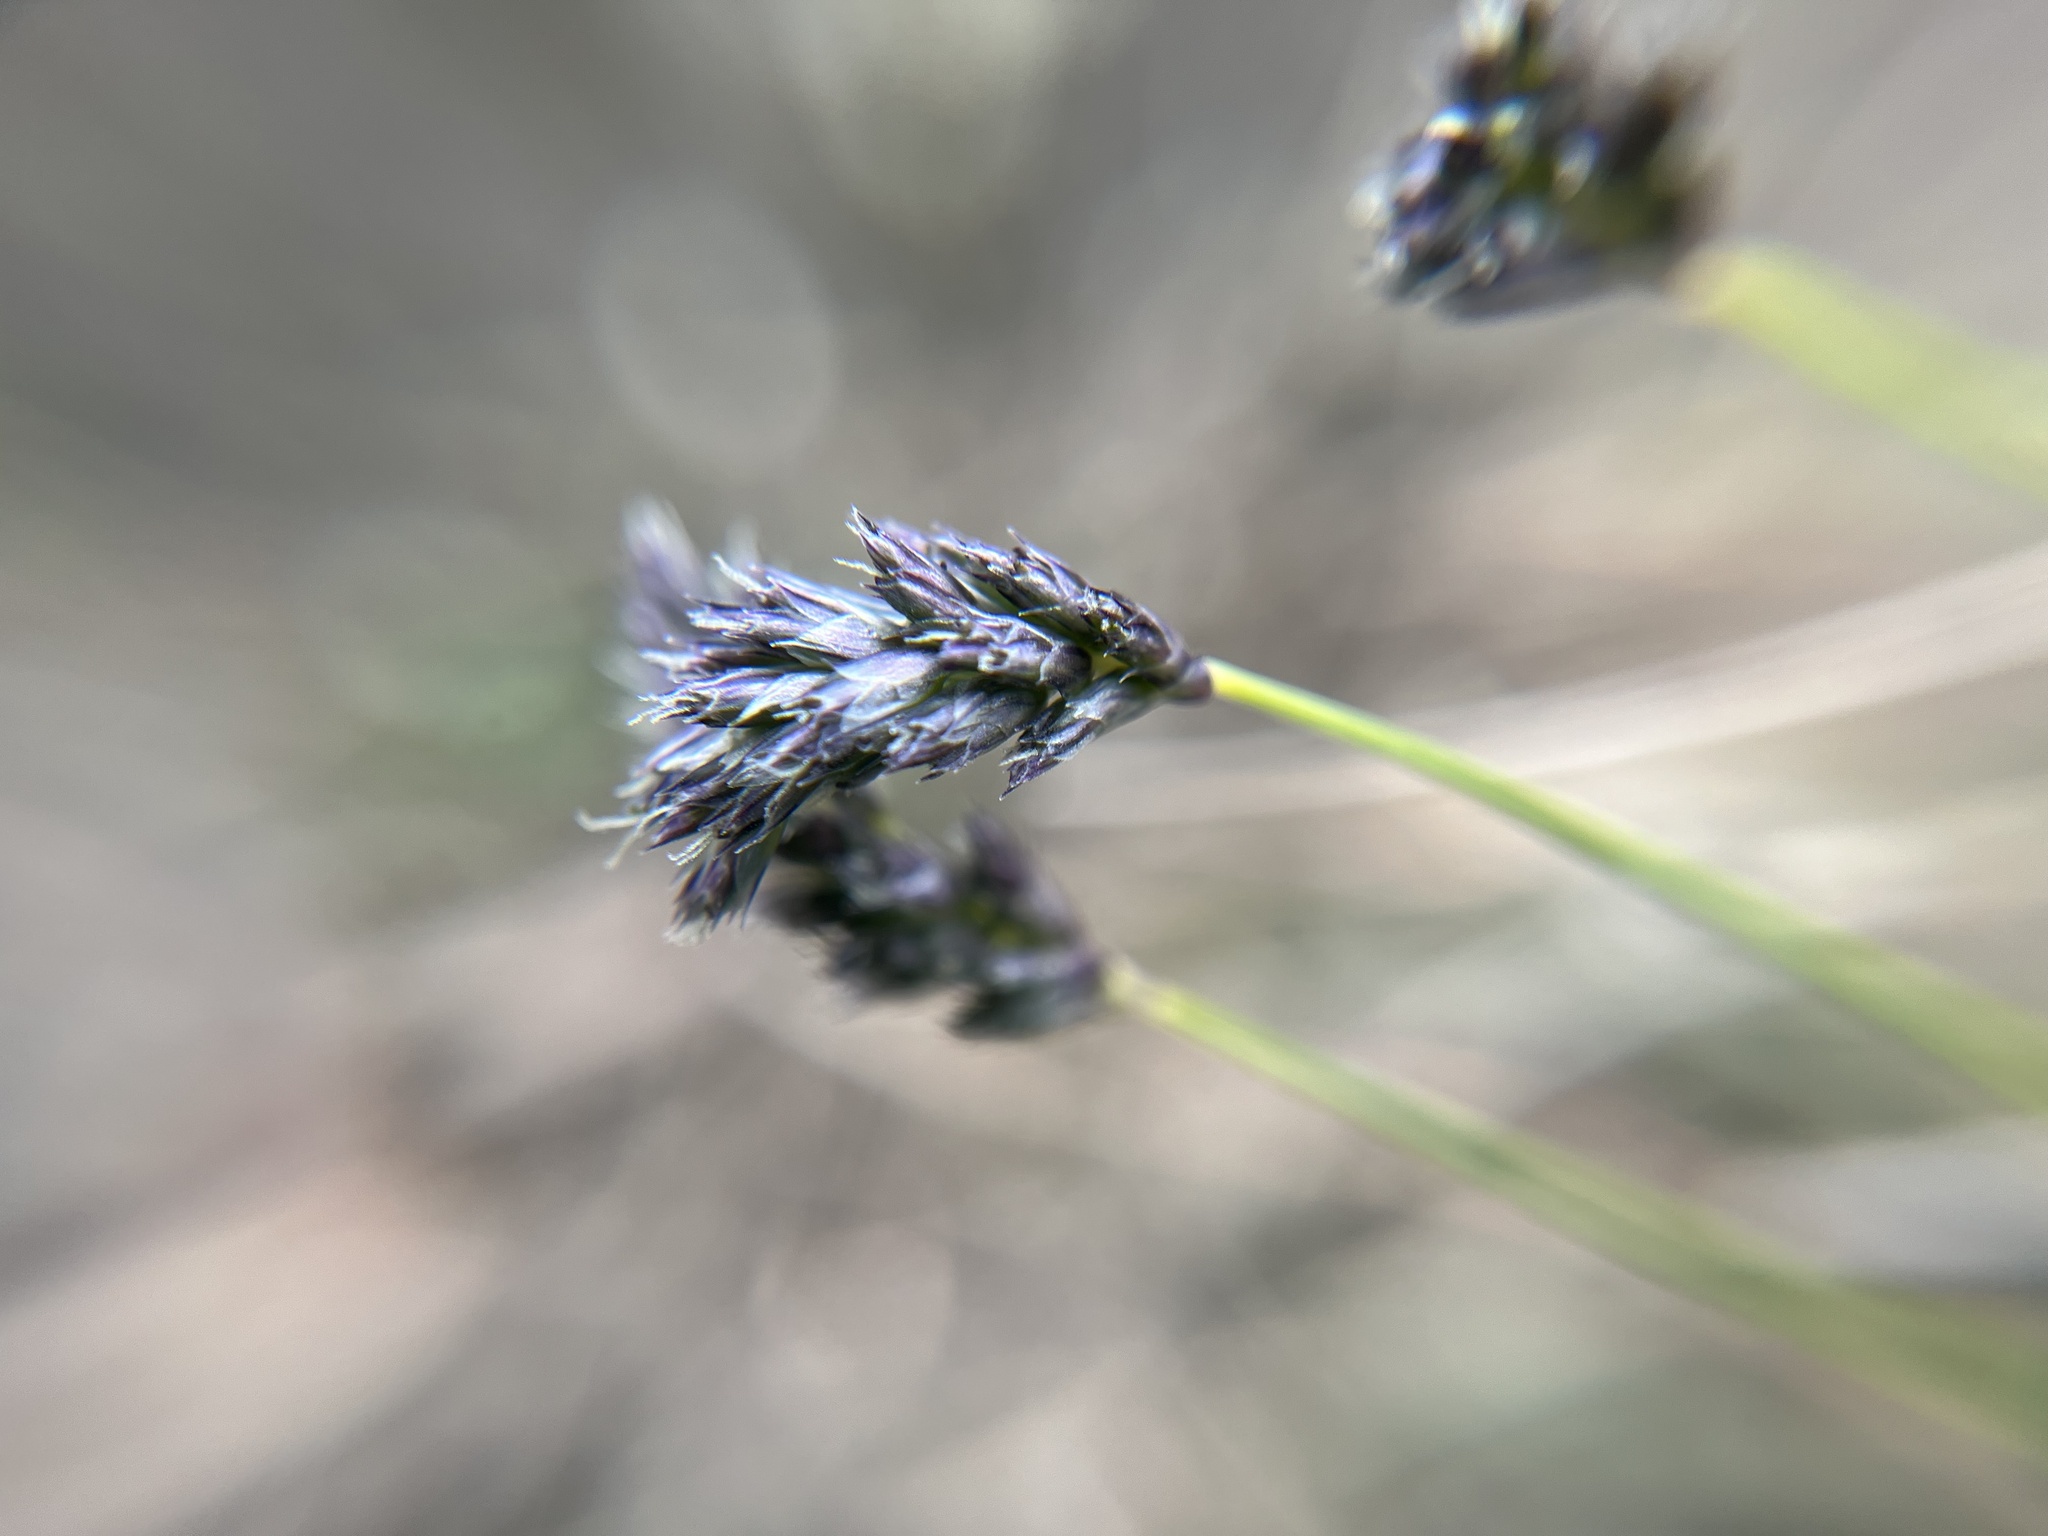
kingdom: Plantae
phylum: Tracheophyta
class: Liliopsida
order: Poales
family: Poaceae
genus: Sesleria
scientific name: Sesleria caerulea
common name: Blue moor-grass
